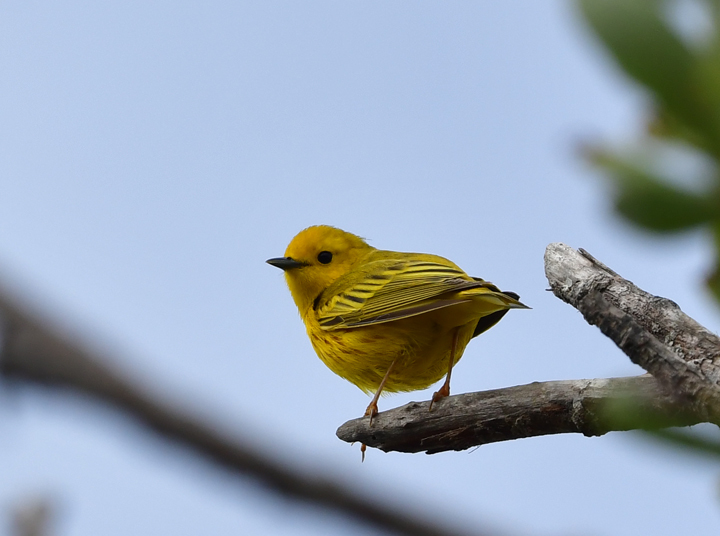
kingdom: Animalia
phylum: Chordata
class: Aves
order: Passeriformes
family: Parulidae
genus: Setophaga
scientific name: Setophaga petechia
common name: Yellow warbler
